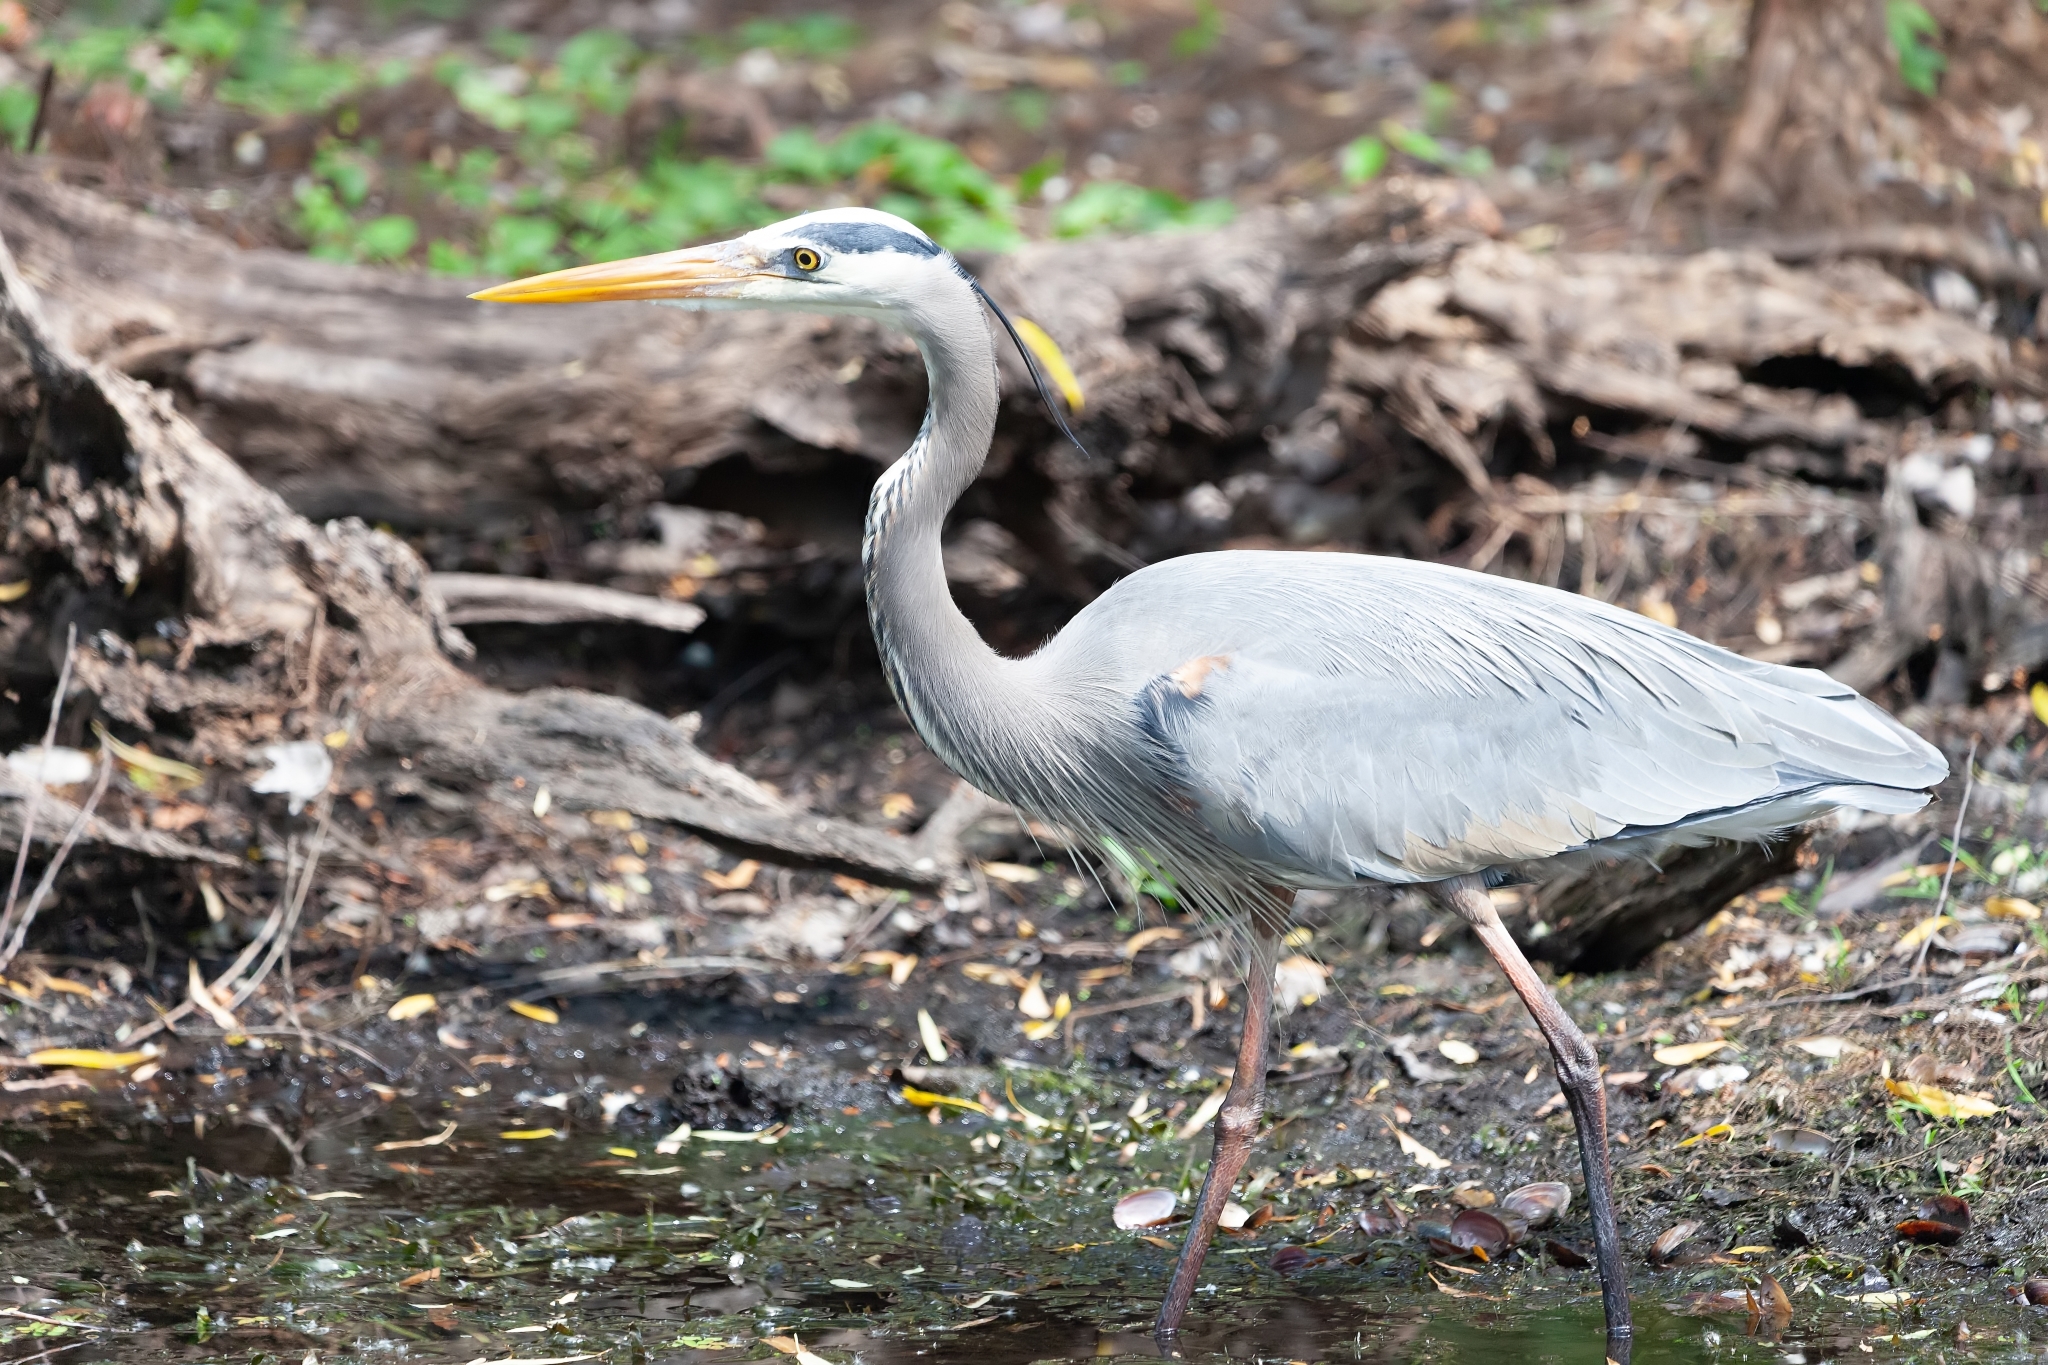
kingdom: Animalia
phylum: Chordata
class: Aves
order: Pelecaniformes
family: Ardeidae
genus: Ardea
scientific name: Ardea herodias
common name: Great blue heron
